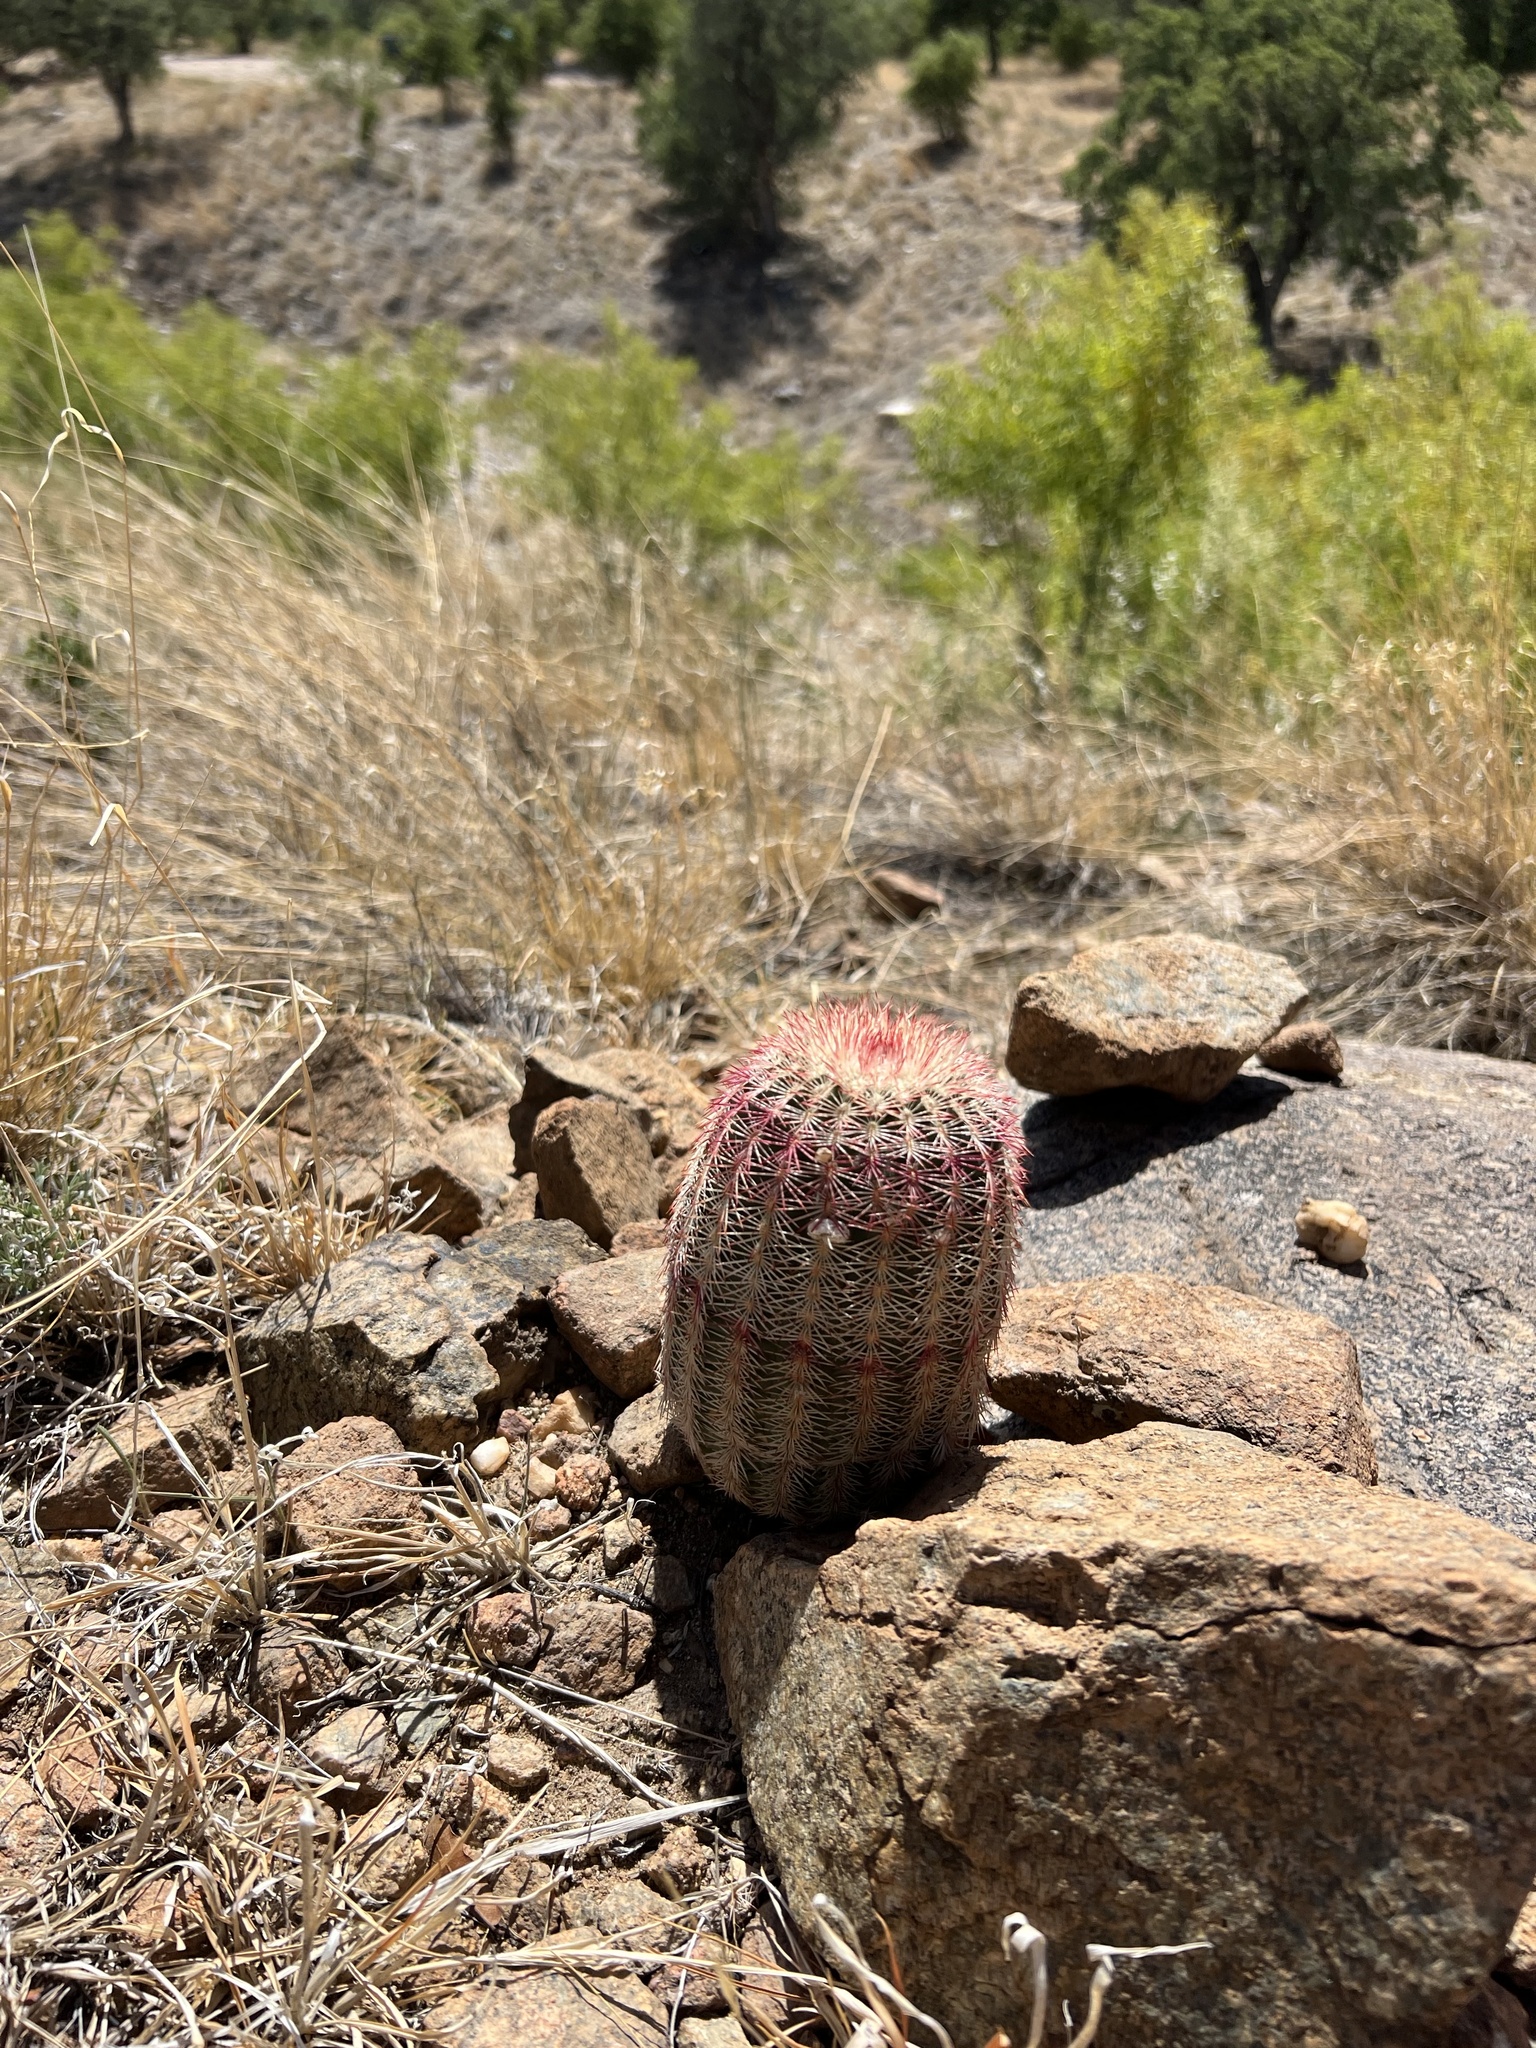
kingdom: Plantae
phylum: Tracheophyta
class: Magnoliopsida
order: Caryophyllales
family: Cactaceae
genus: Echinocereus
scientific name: Echinocereus rigidissimus
